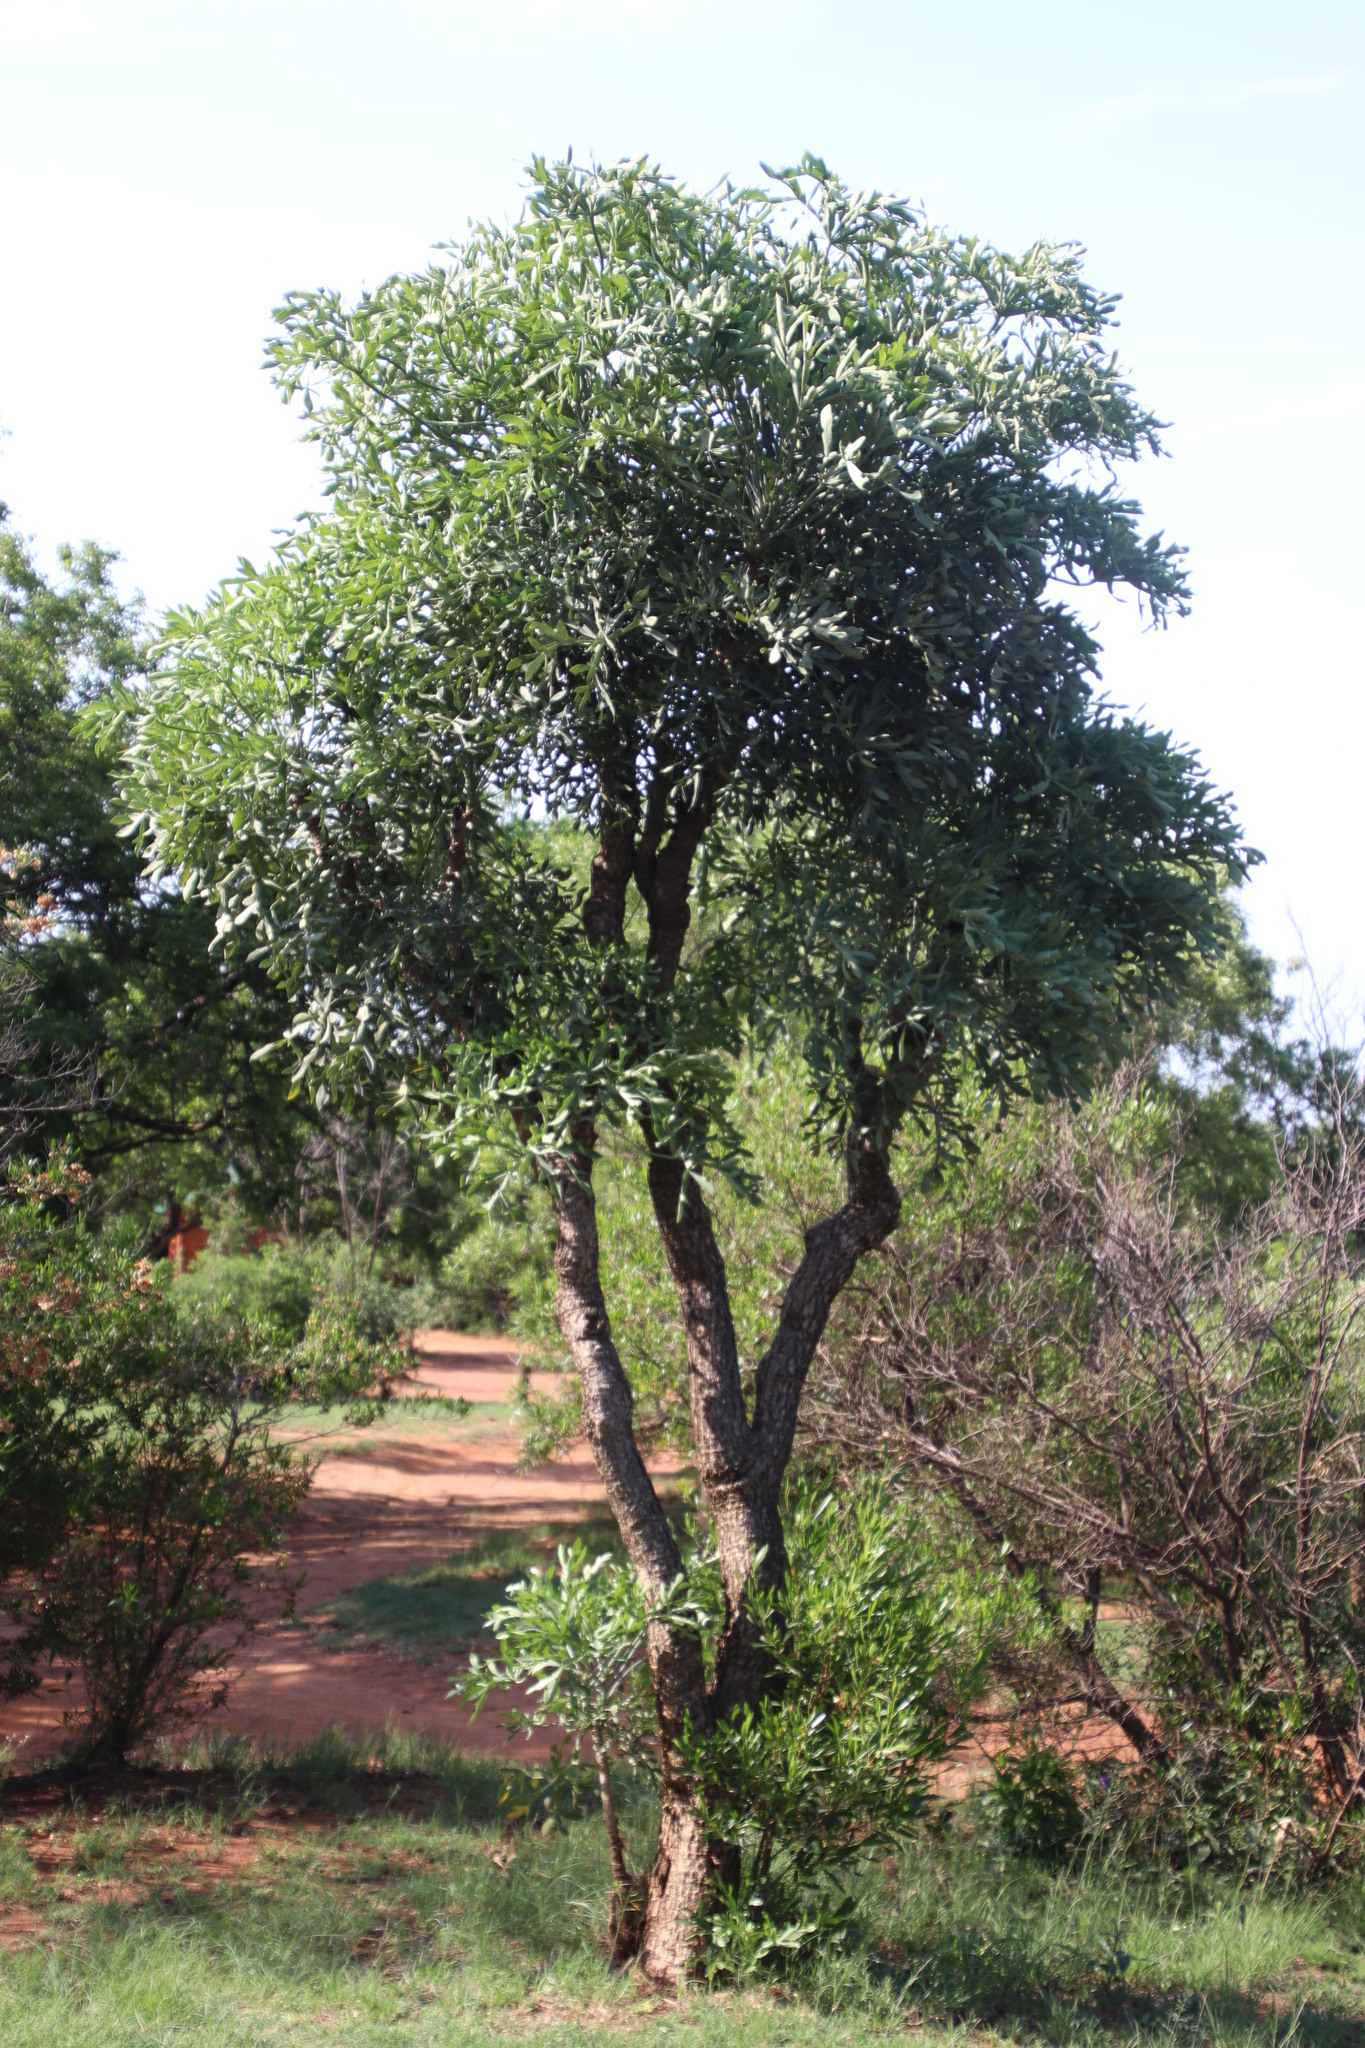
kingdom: Plantae
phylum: Tracheophyta
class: Magnoliopsida
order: Apiales
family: Araliaceae
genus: Cussonia
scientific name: Cussonia paniculata
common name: Cabbagetree
